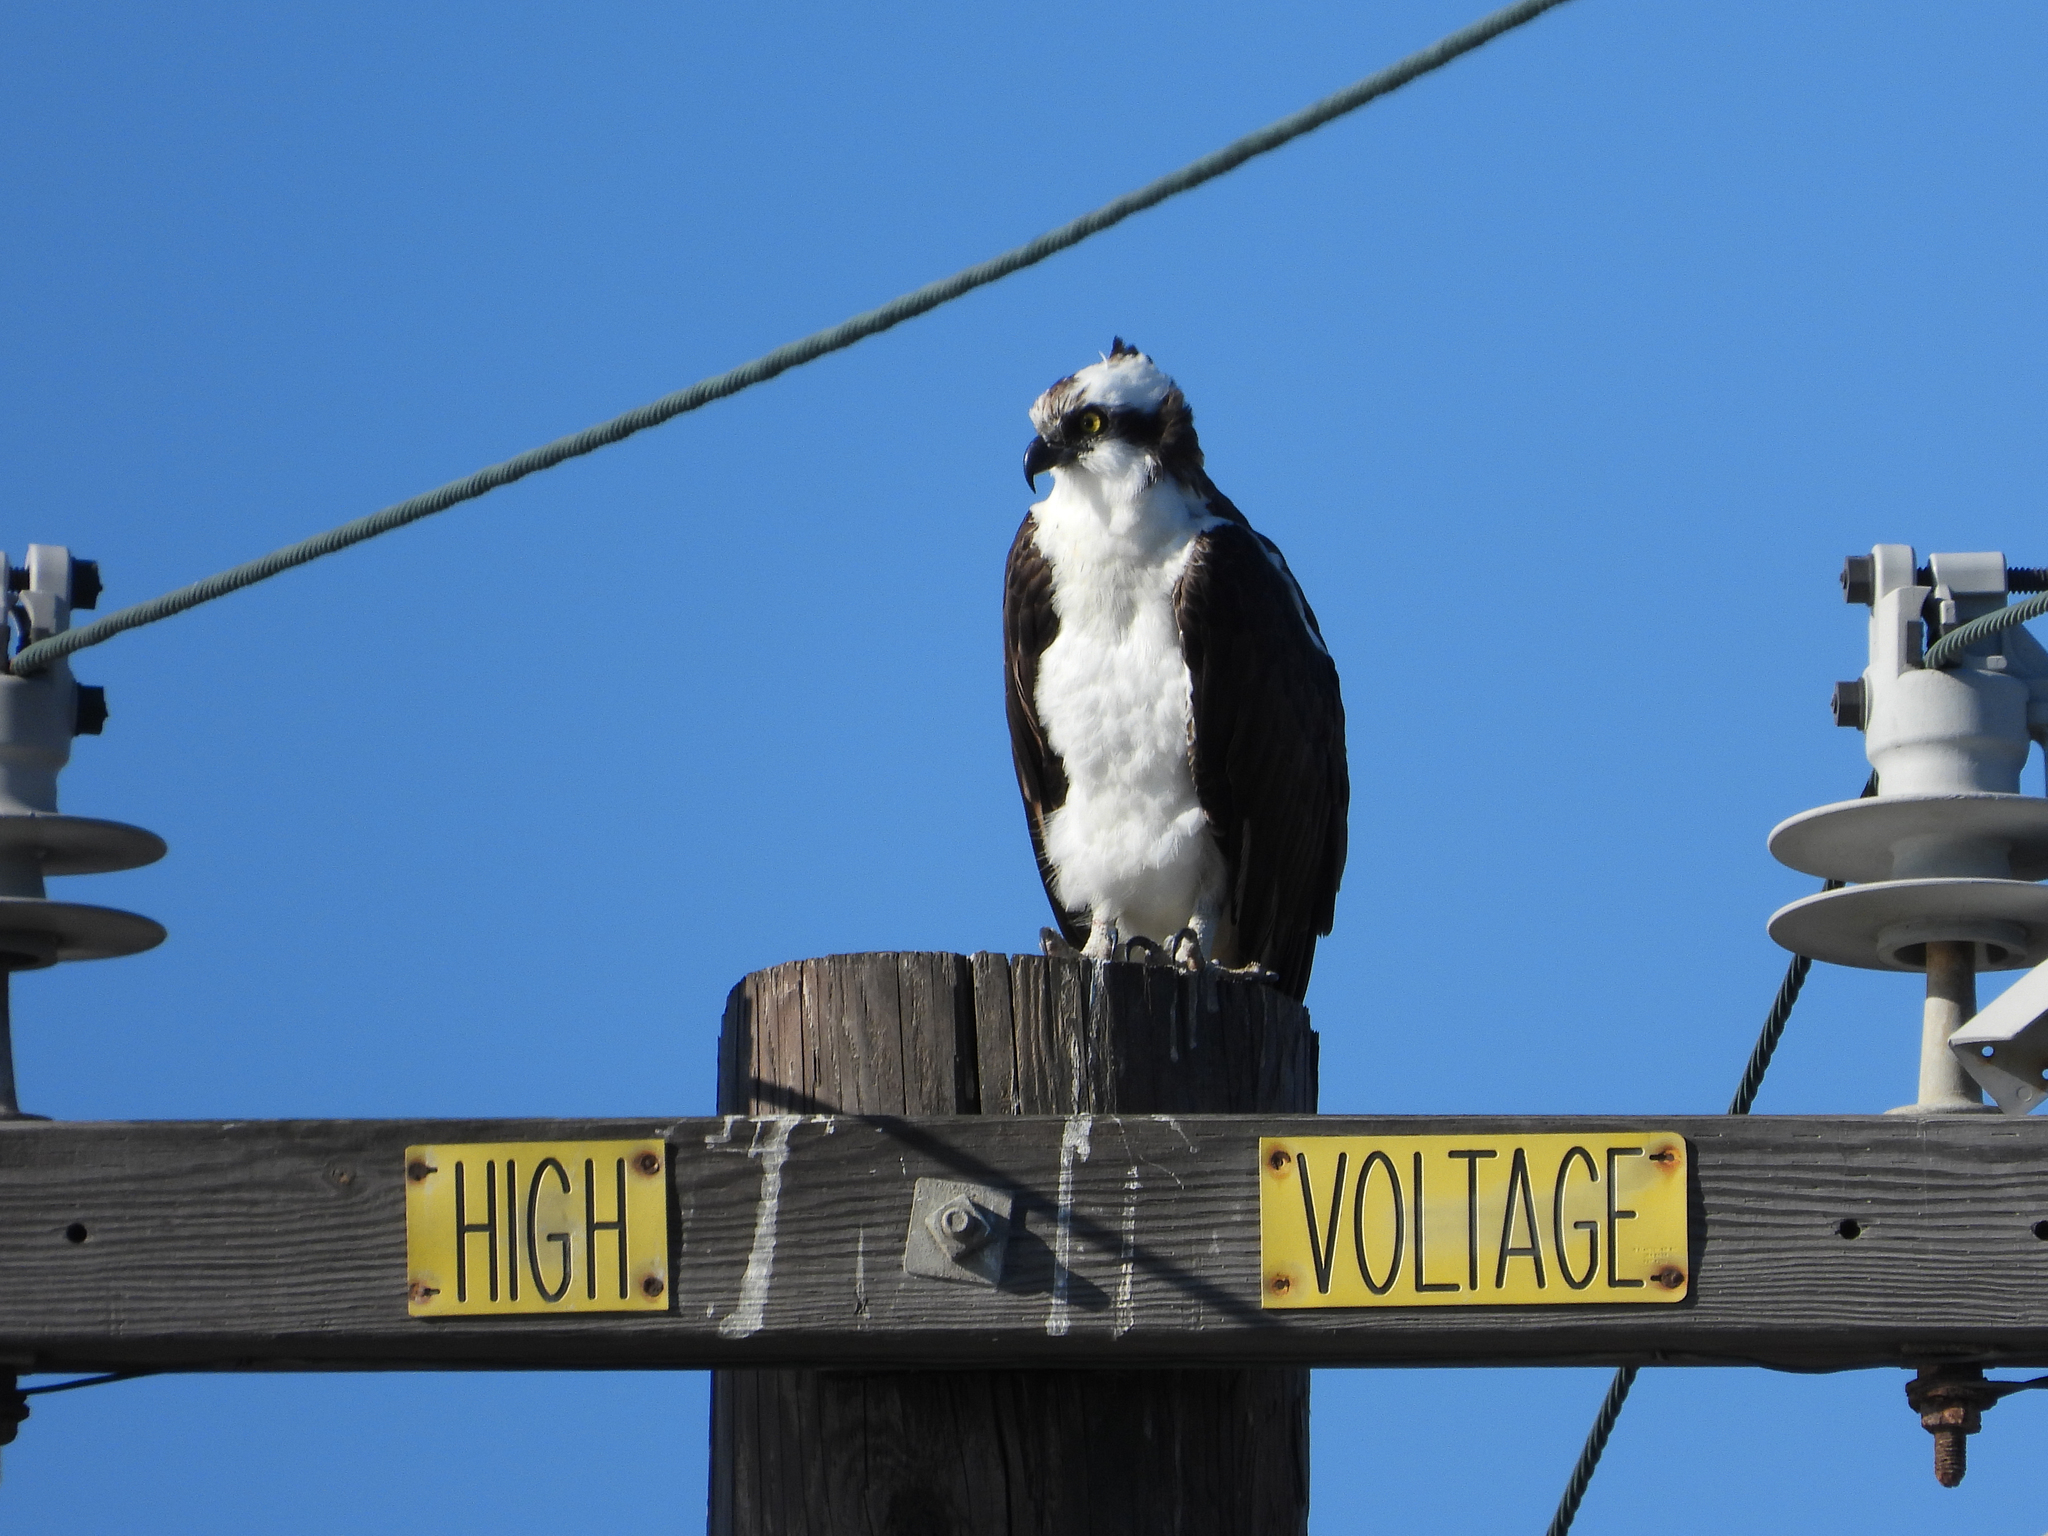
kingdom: Animalia
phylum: Chordata
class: Aves
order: Accipitriformes
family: Pandionidae
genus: Pandion
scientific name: Pandion haliaetus
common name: Osprey
